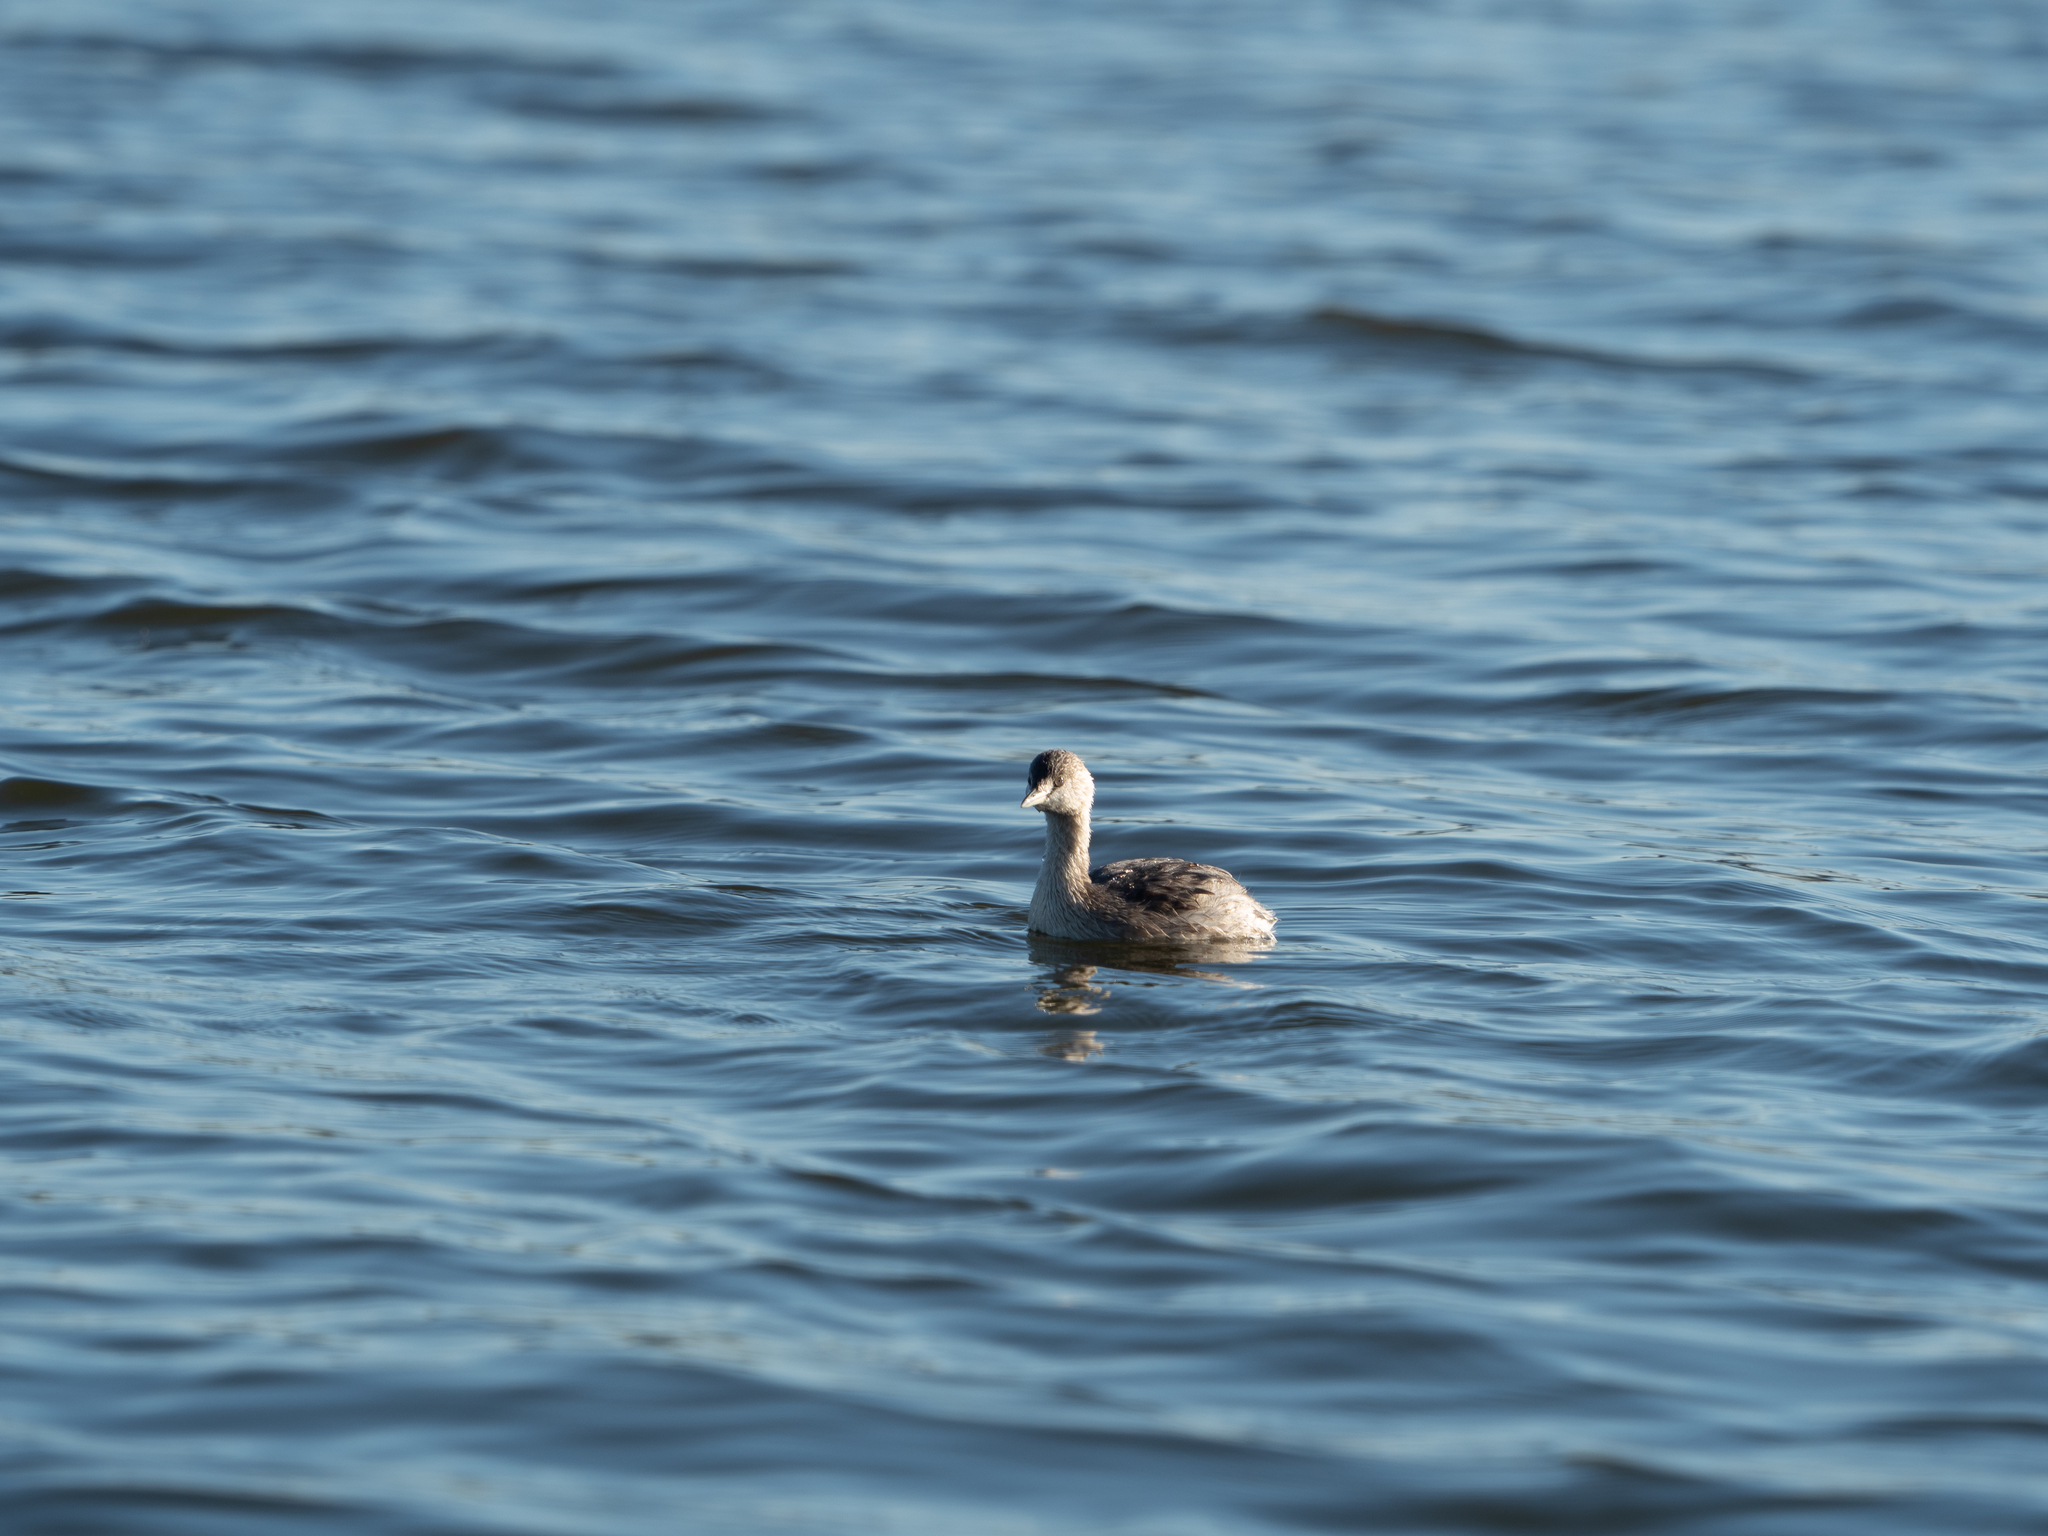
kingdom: Animalia
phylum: Chordata
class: Aves
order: Podicipediformes
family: Podicipedidae
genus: Poliocephalus
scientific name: Poliocephalus poliocephalus
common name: Hoary-headed grebe
